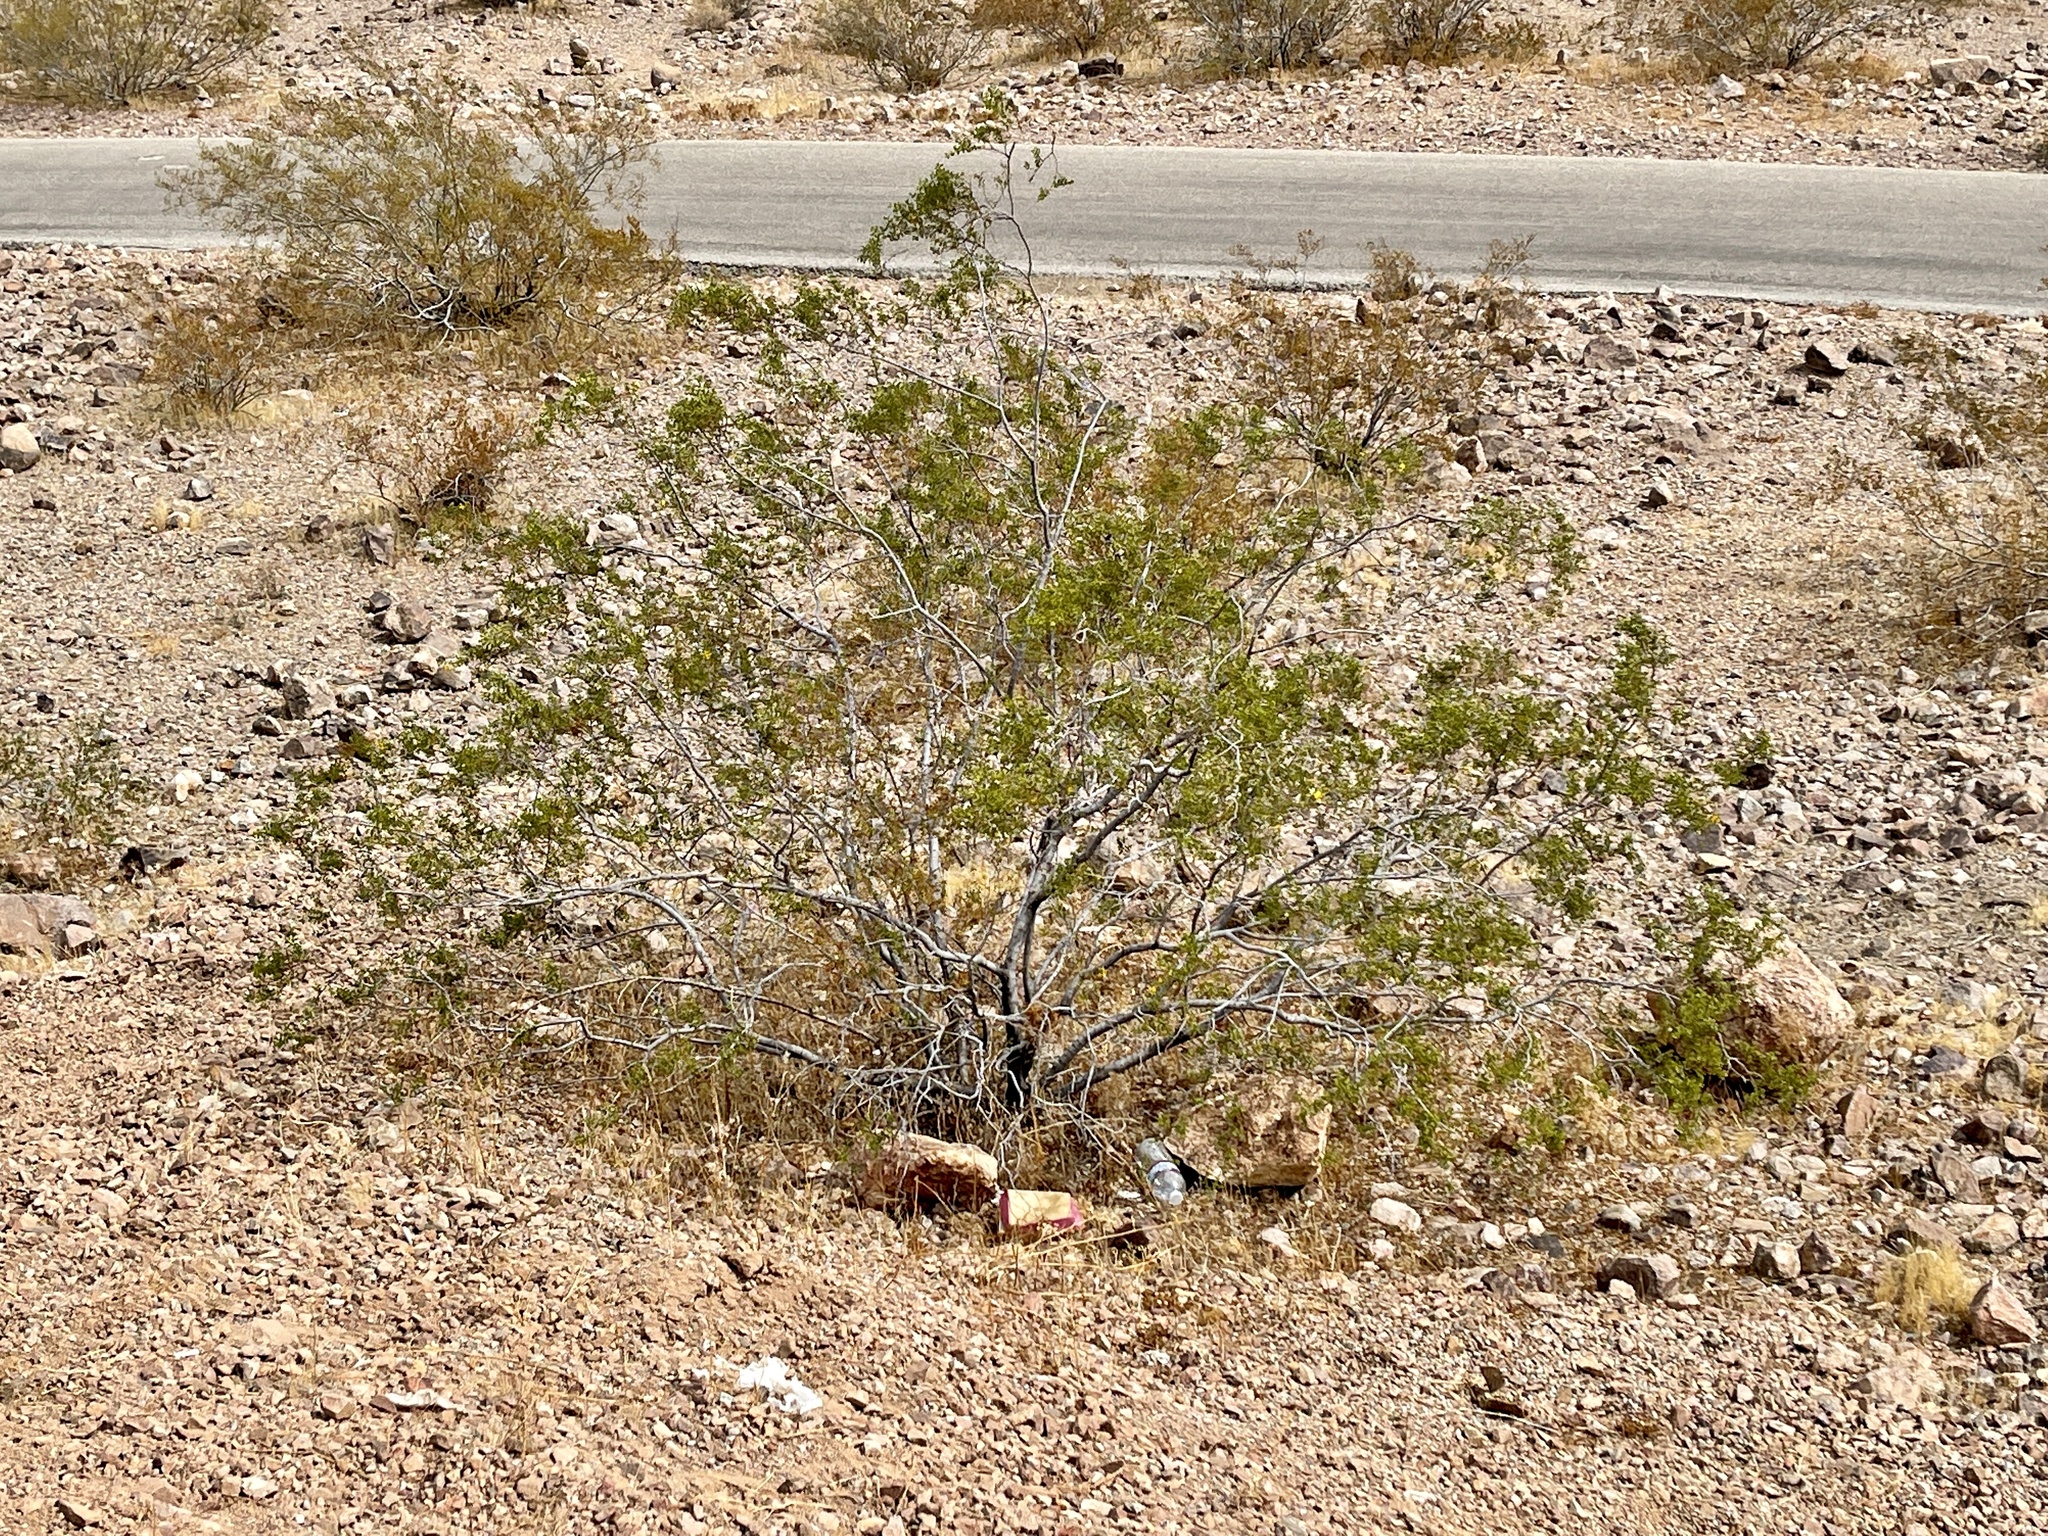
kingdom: Plantae
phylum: Tracheophyta
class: Magnoliopsida
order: Zygophyllales
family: Zygophyllaceae
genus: Larrea
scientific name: Larrea tridentata
